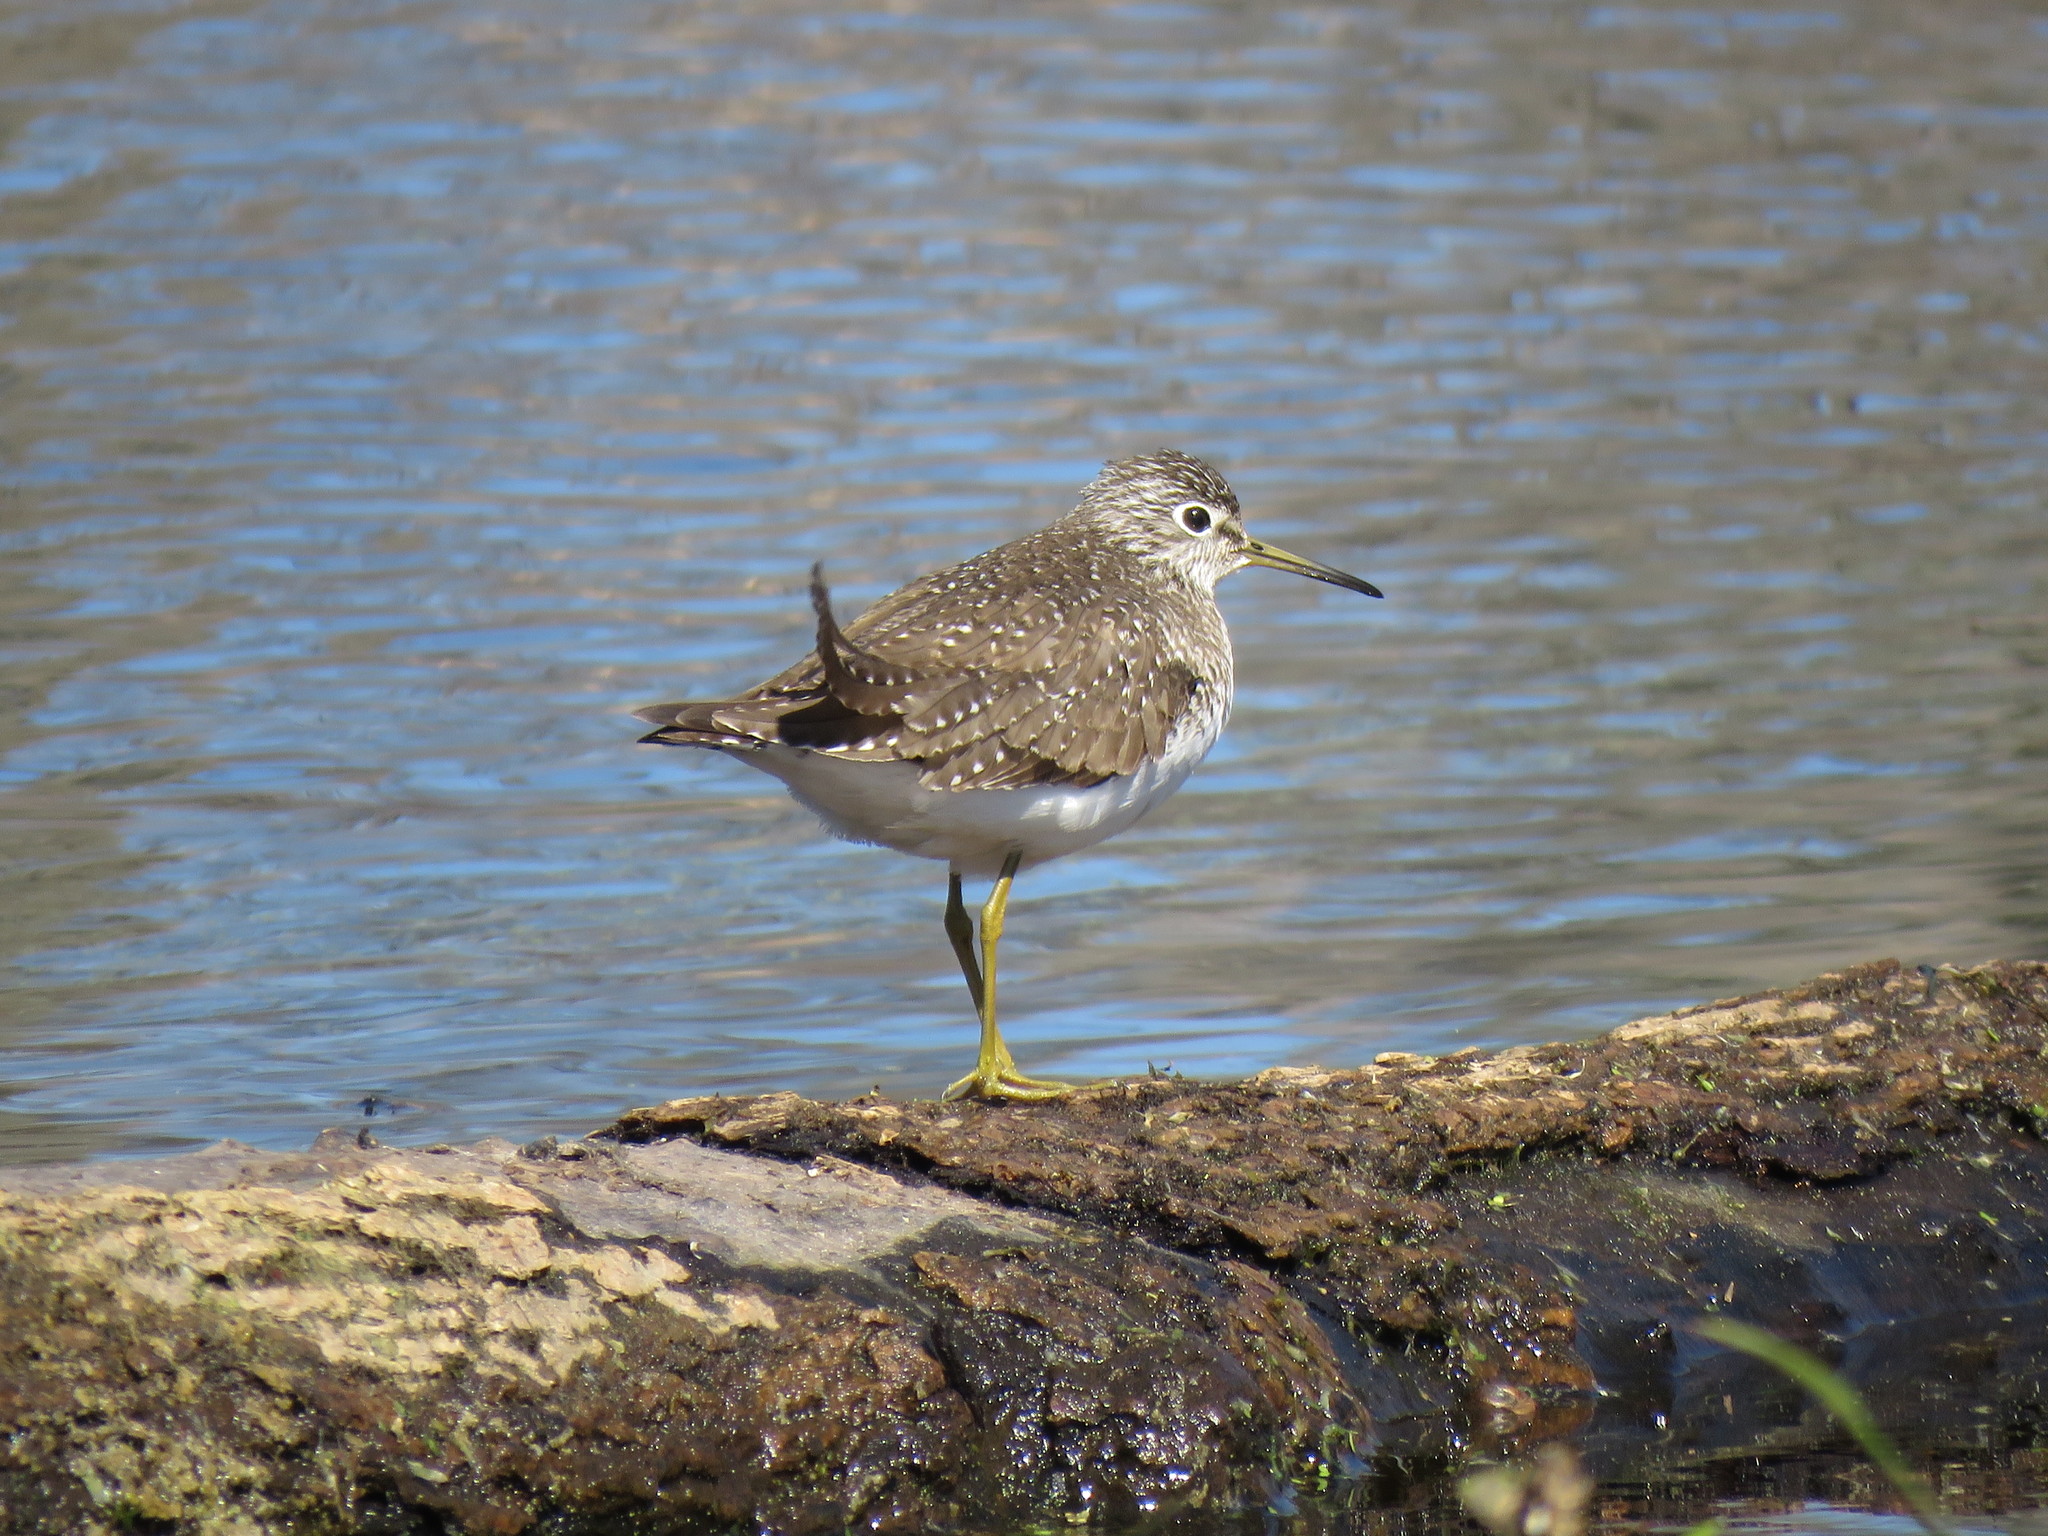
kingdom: Animalia
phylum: Chordata
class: Aves
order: Charadriiformes
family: Scolopacidae
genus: Tringa
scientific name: Tringa solitaria
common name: Solitary sandpiper
